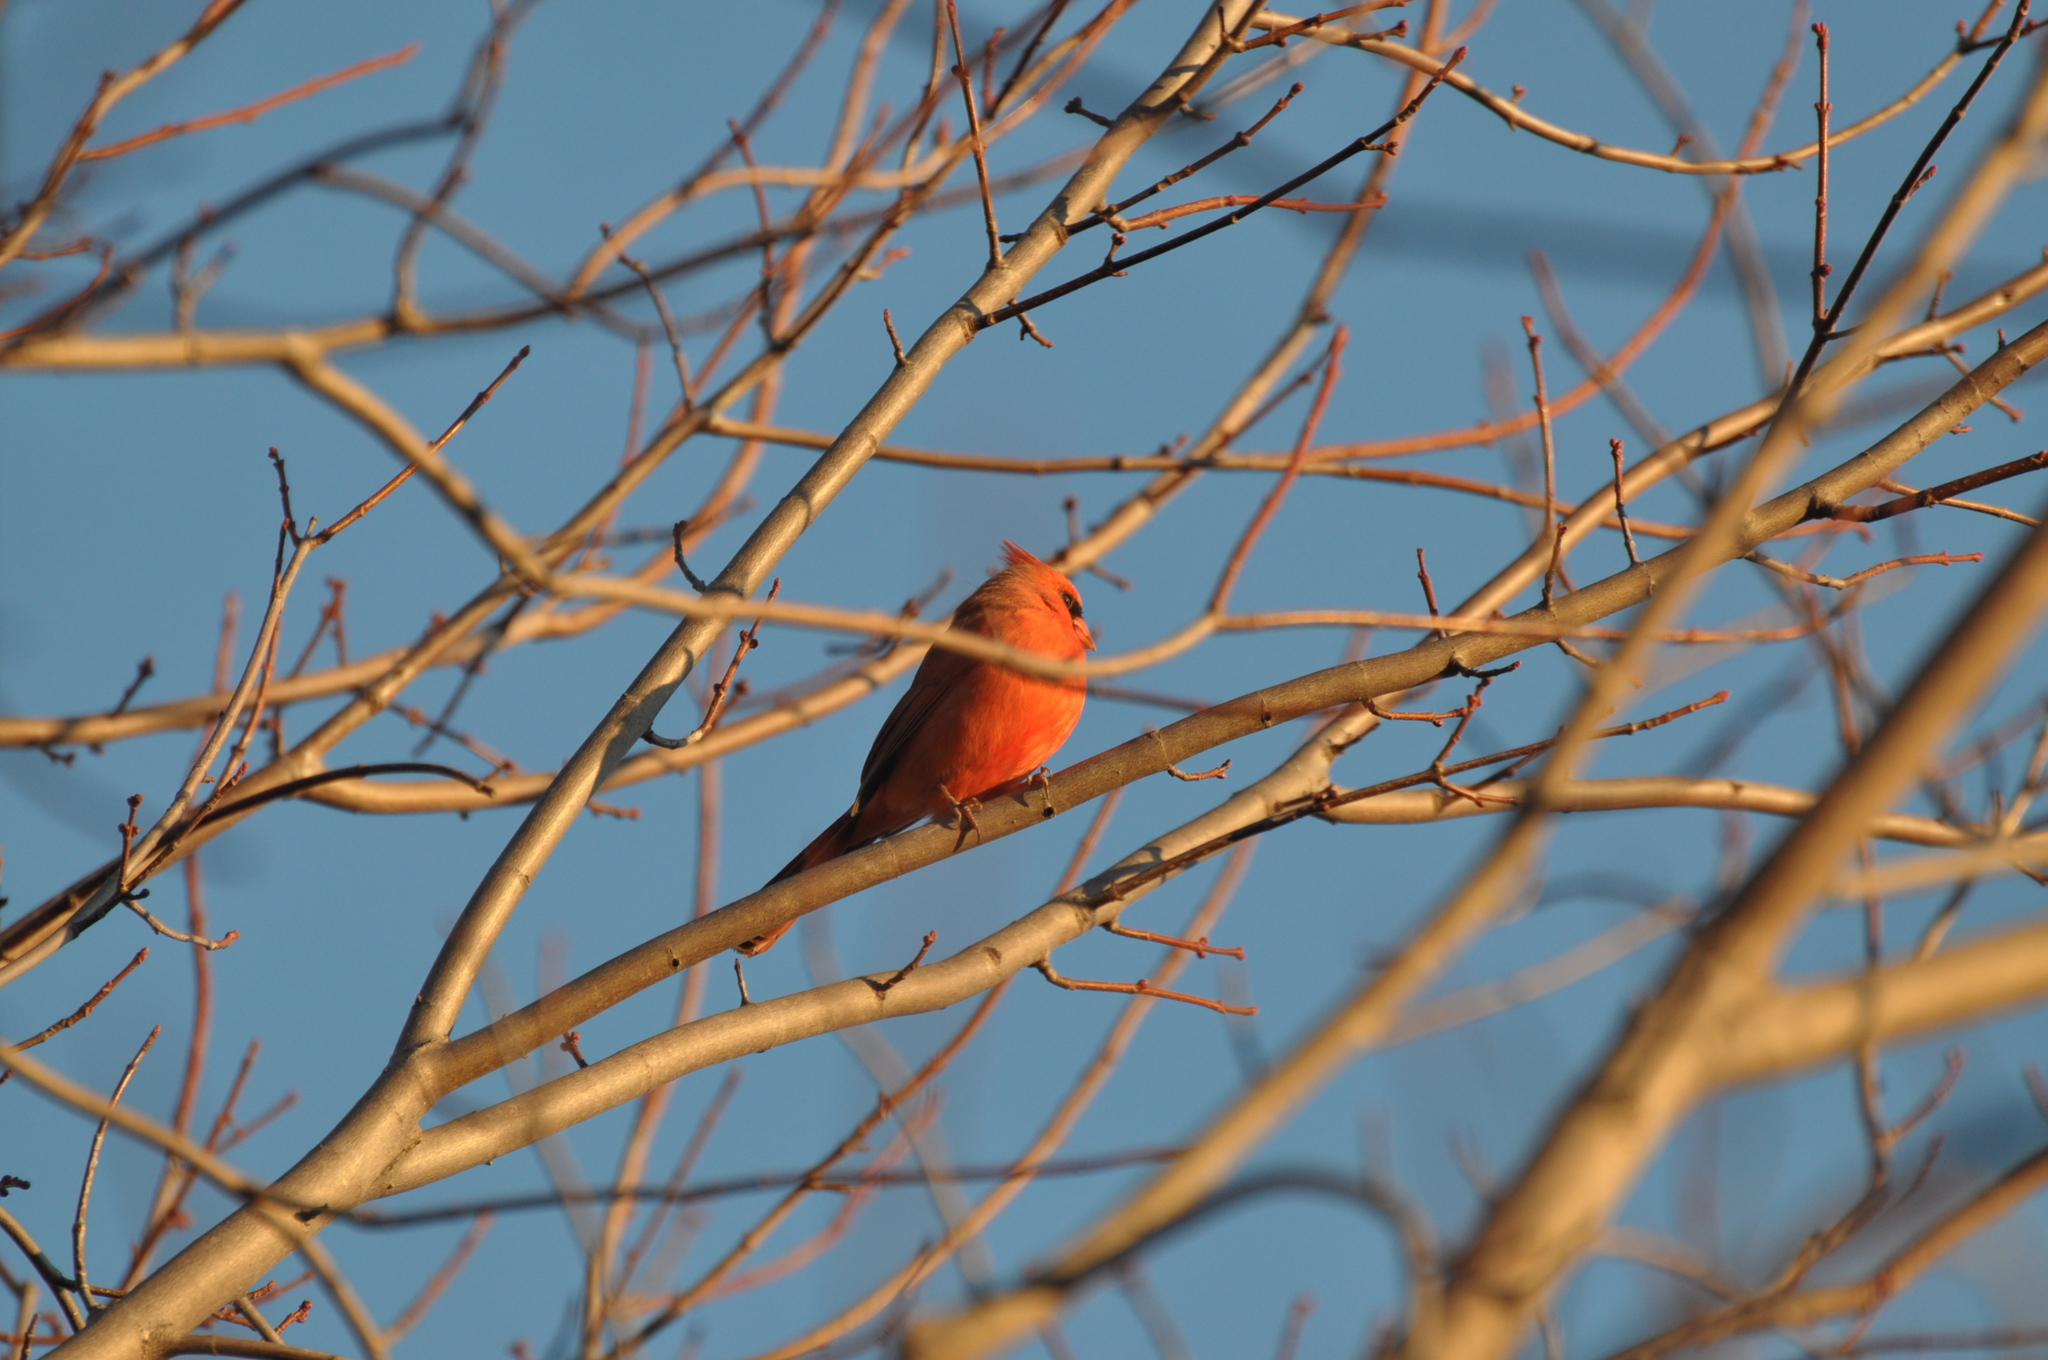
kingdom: Animalia
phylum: Chordata
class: Aves
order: Passeriformes
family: Cardinalidae
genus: Cardinalis
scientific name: Cardinalis cardinalis
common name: Northern cardinal
